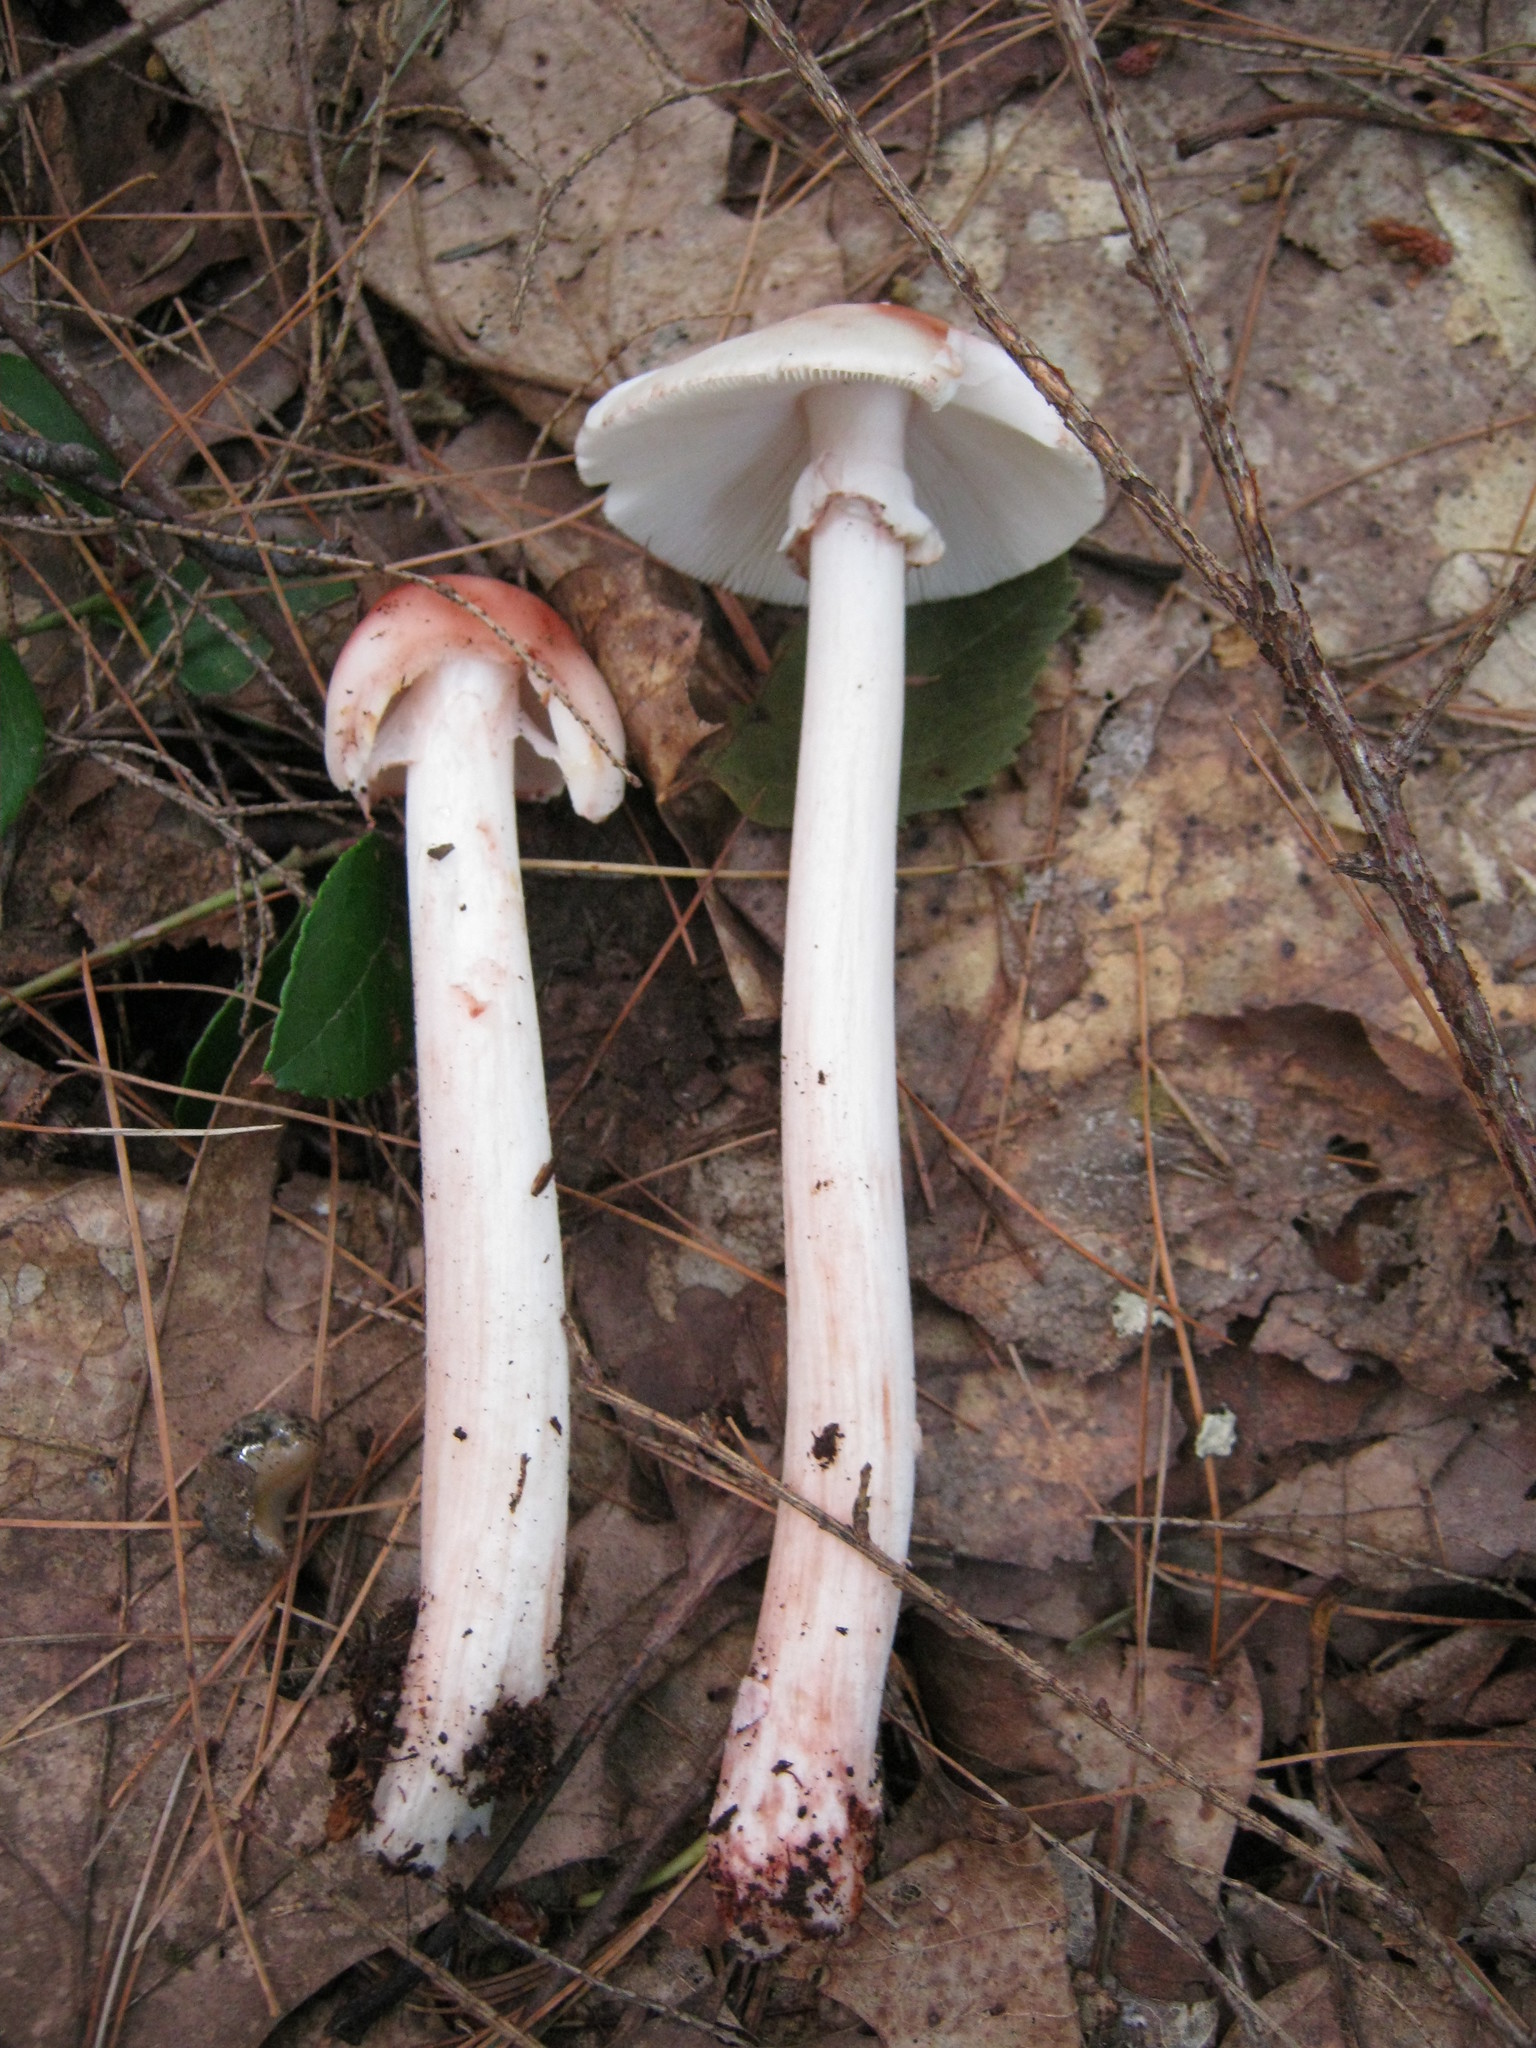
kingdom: Fungi
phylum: Basidiomycota
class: Agaricomycetes
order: Agaricales
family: Amanitaceae
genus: Amanita
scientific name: Amanita rubescens
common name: Blusher
